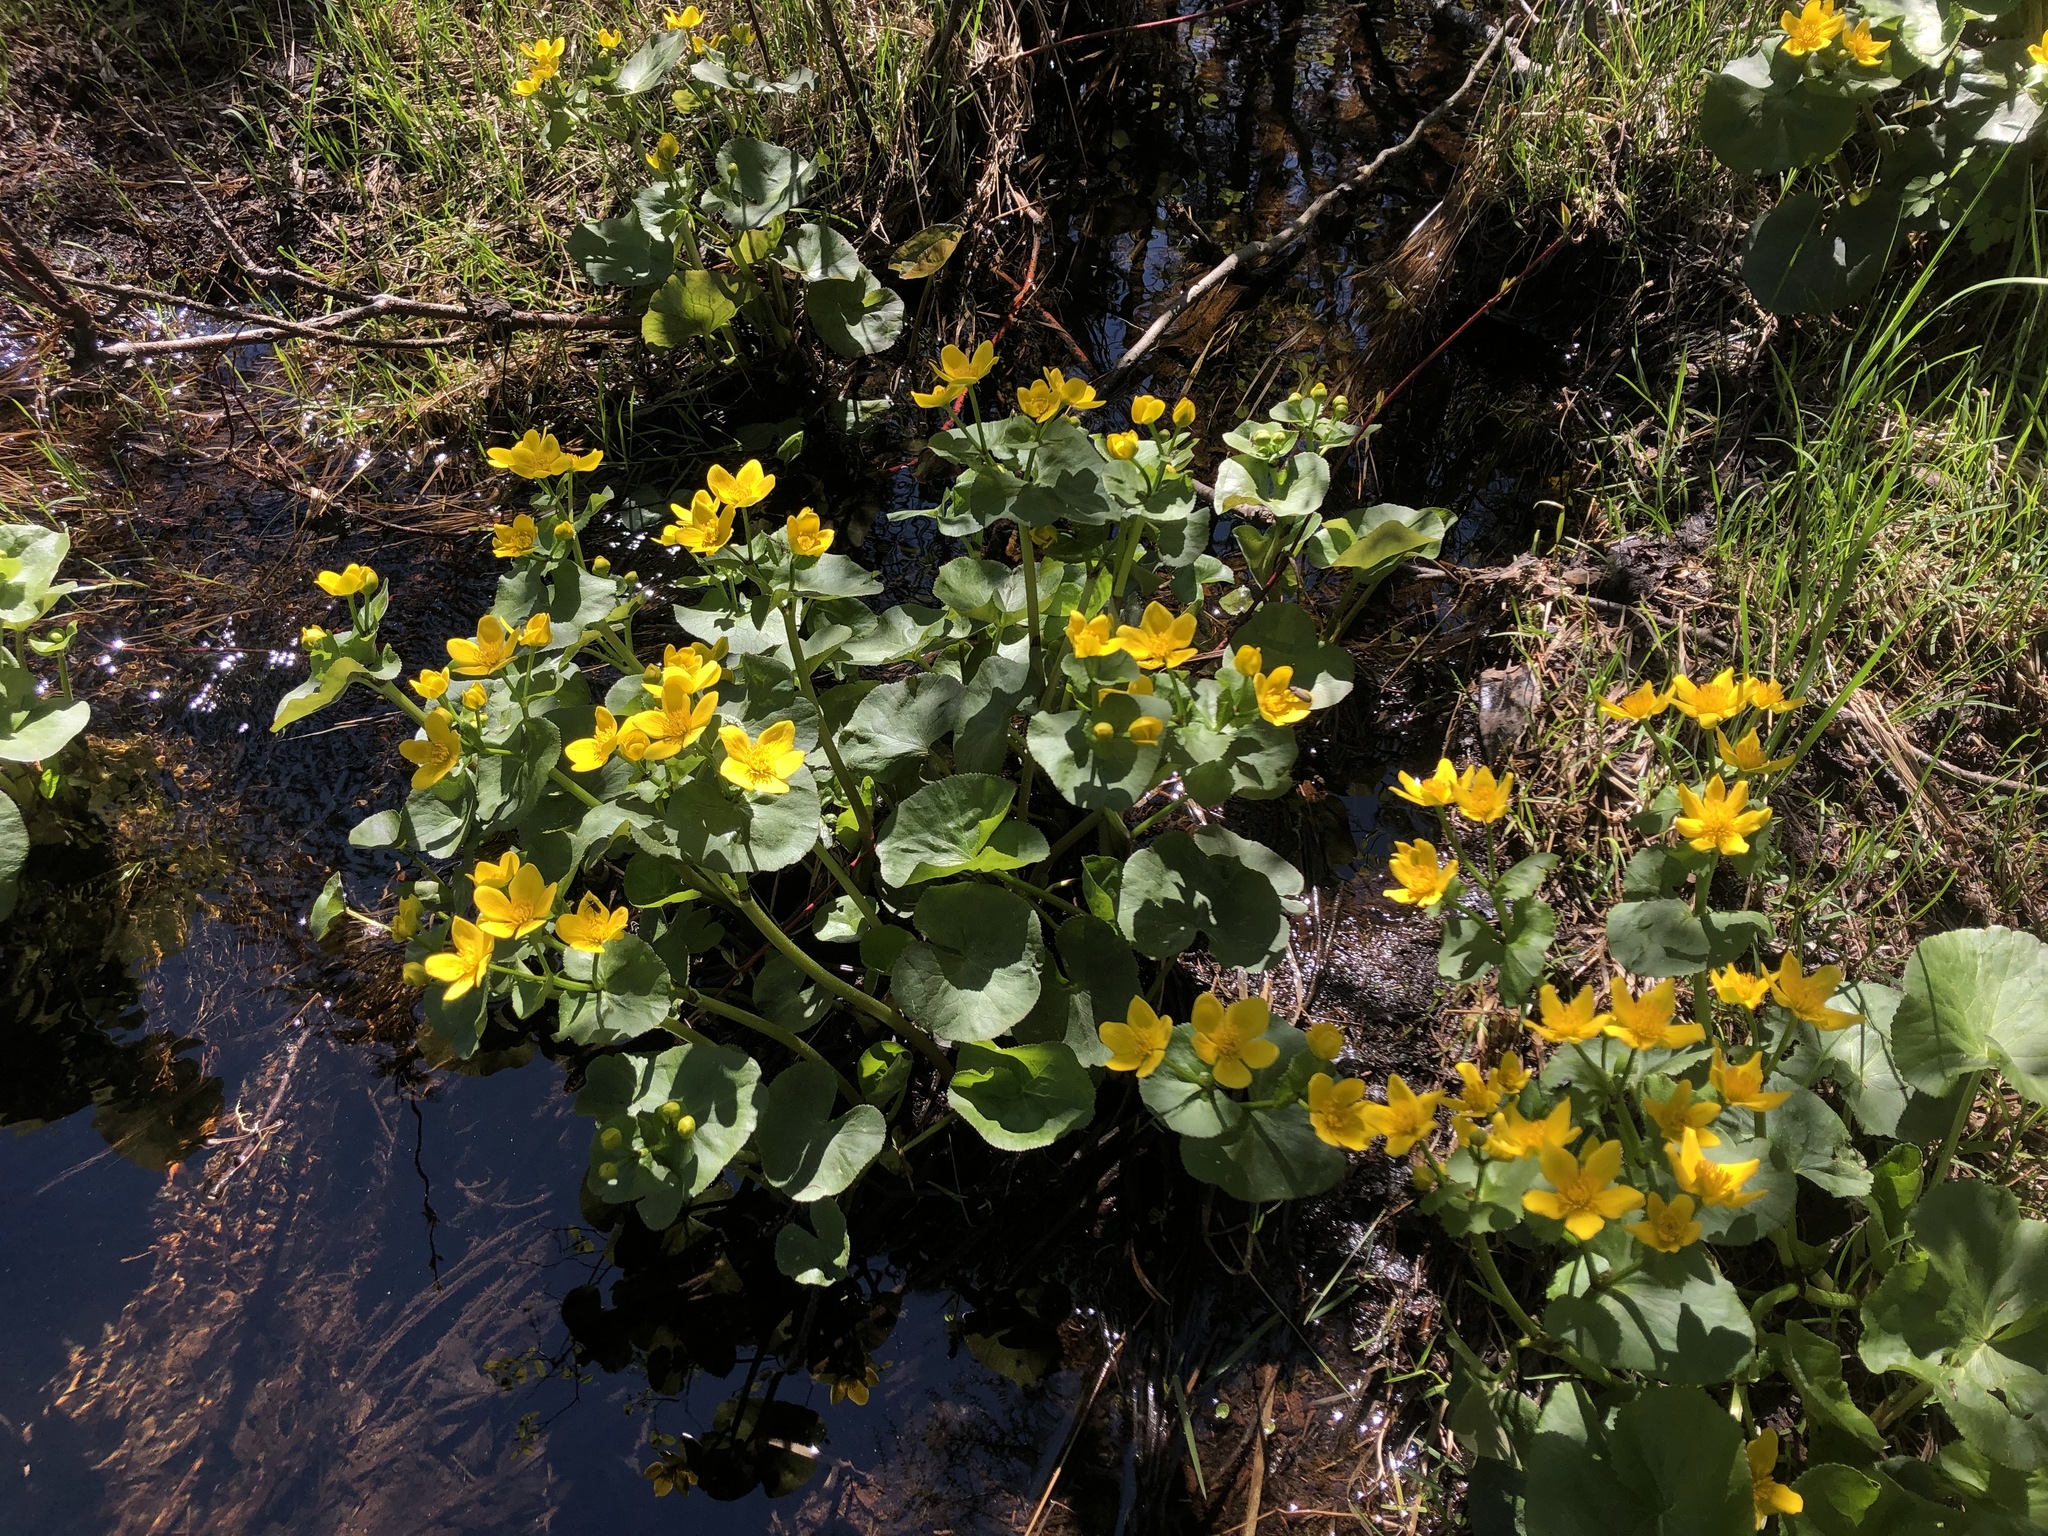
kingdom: Plantae
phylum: Tracheophyta
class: Magnoliopsida
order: Ranunculales
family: Ranunculaceae
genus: Caltha
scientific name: Caltha palustris
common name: Marsh marigold
